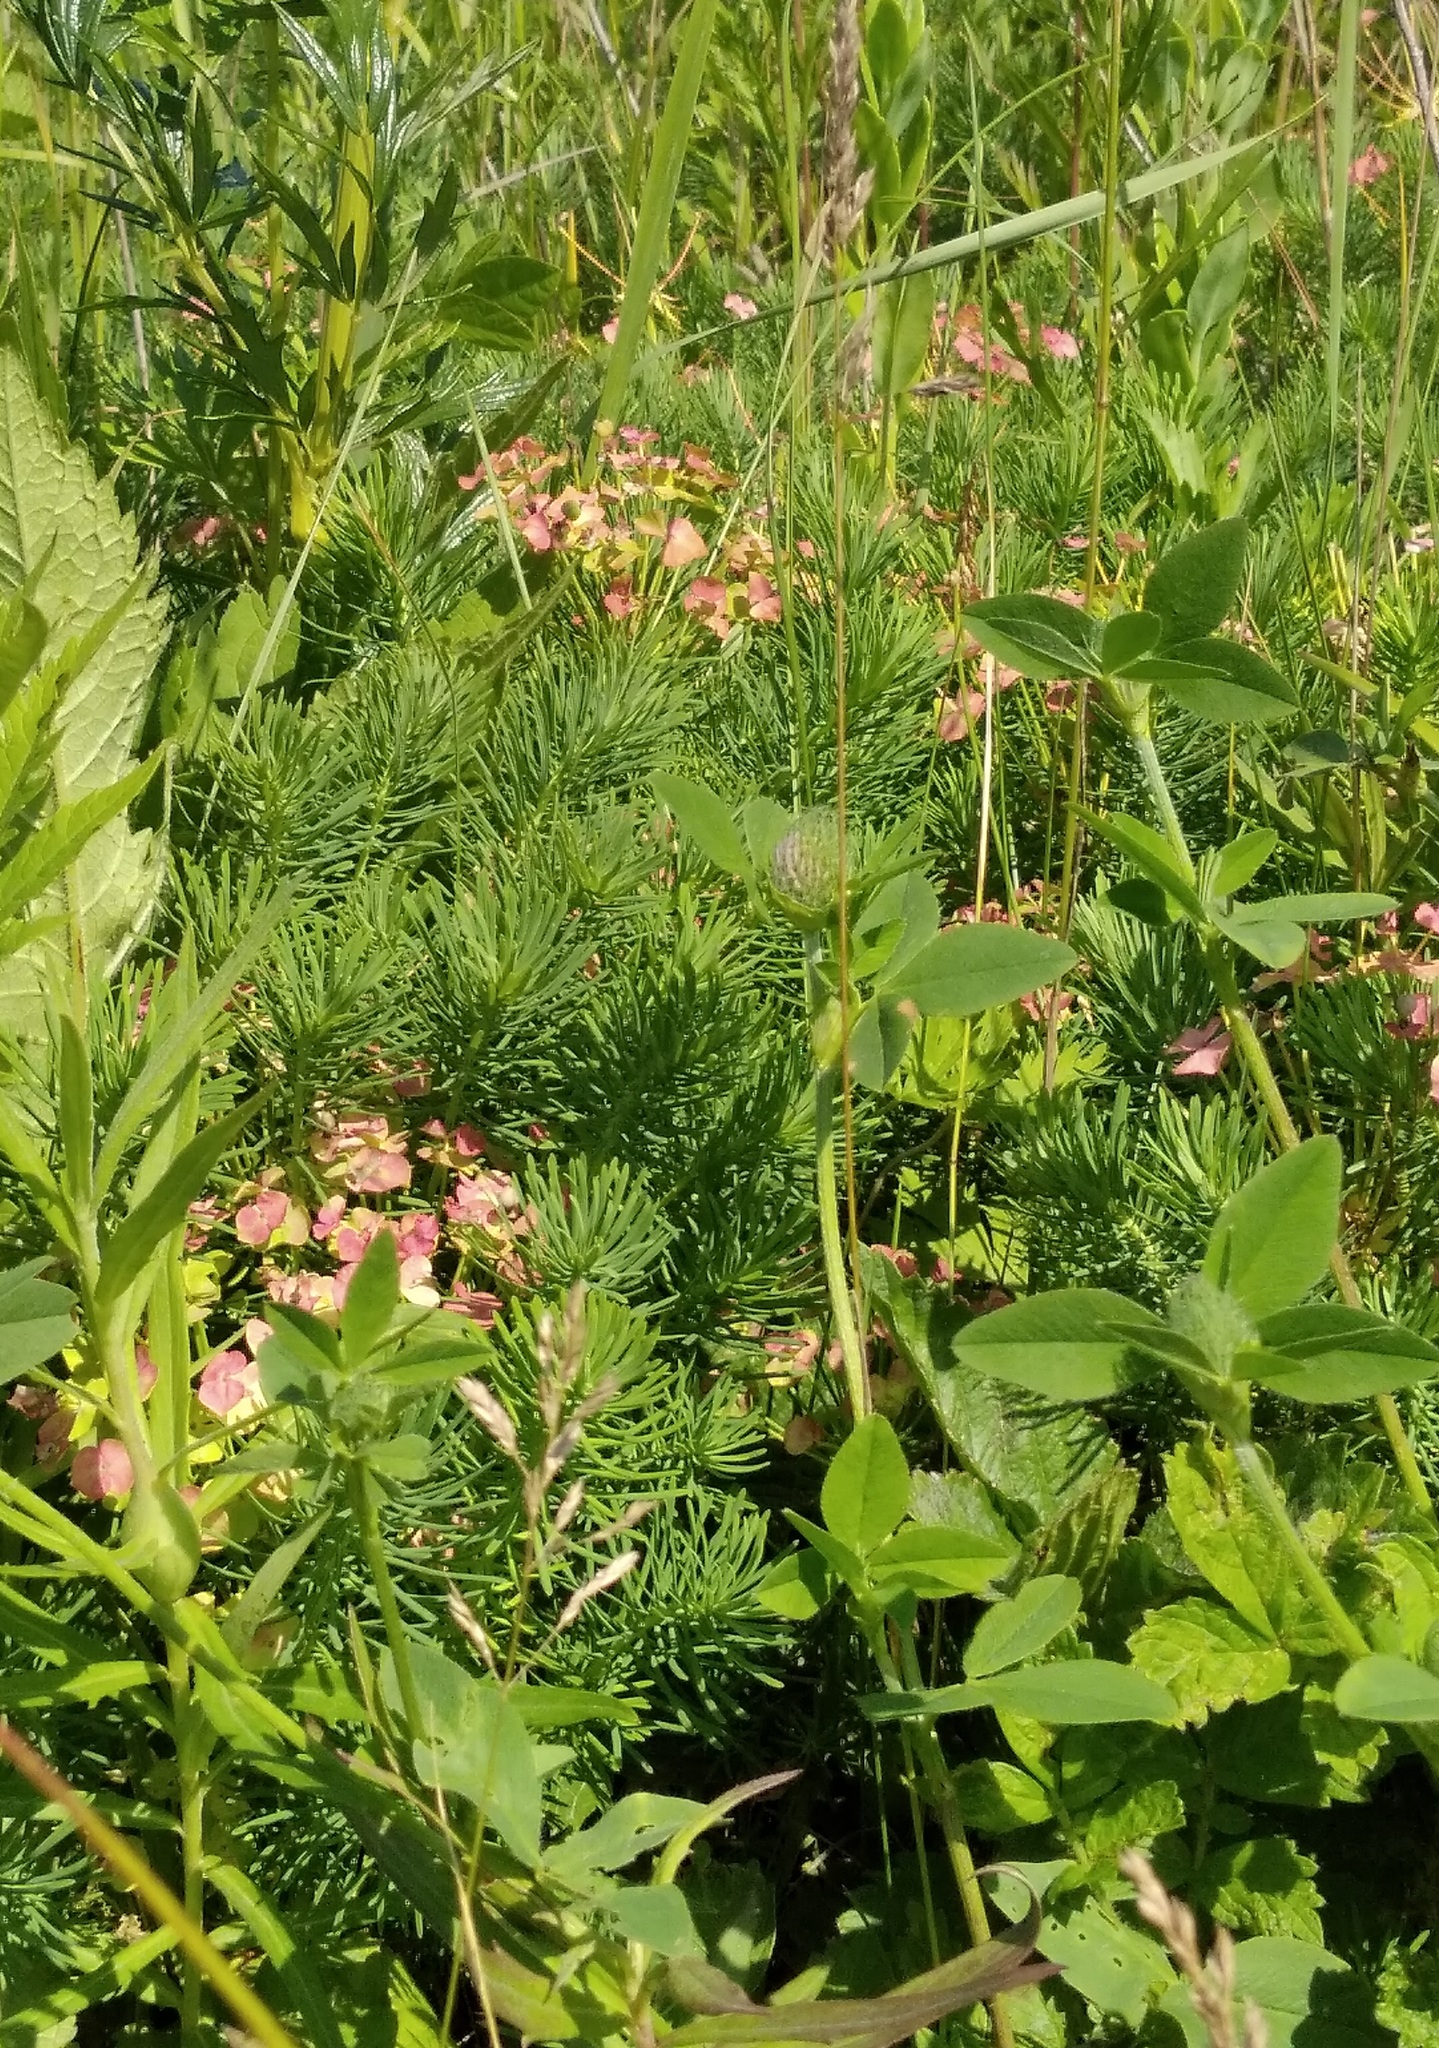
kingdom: Plantae
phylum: Tracheophyta
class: Magnoliopsida
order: Malpighiales
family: Euphorbiaceae
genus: Euphorbia
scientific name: Euphorbia cyparissias
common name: Cypress spurge
